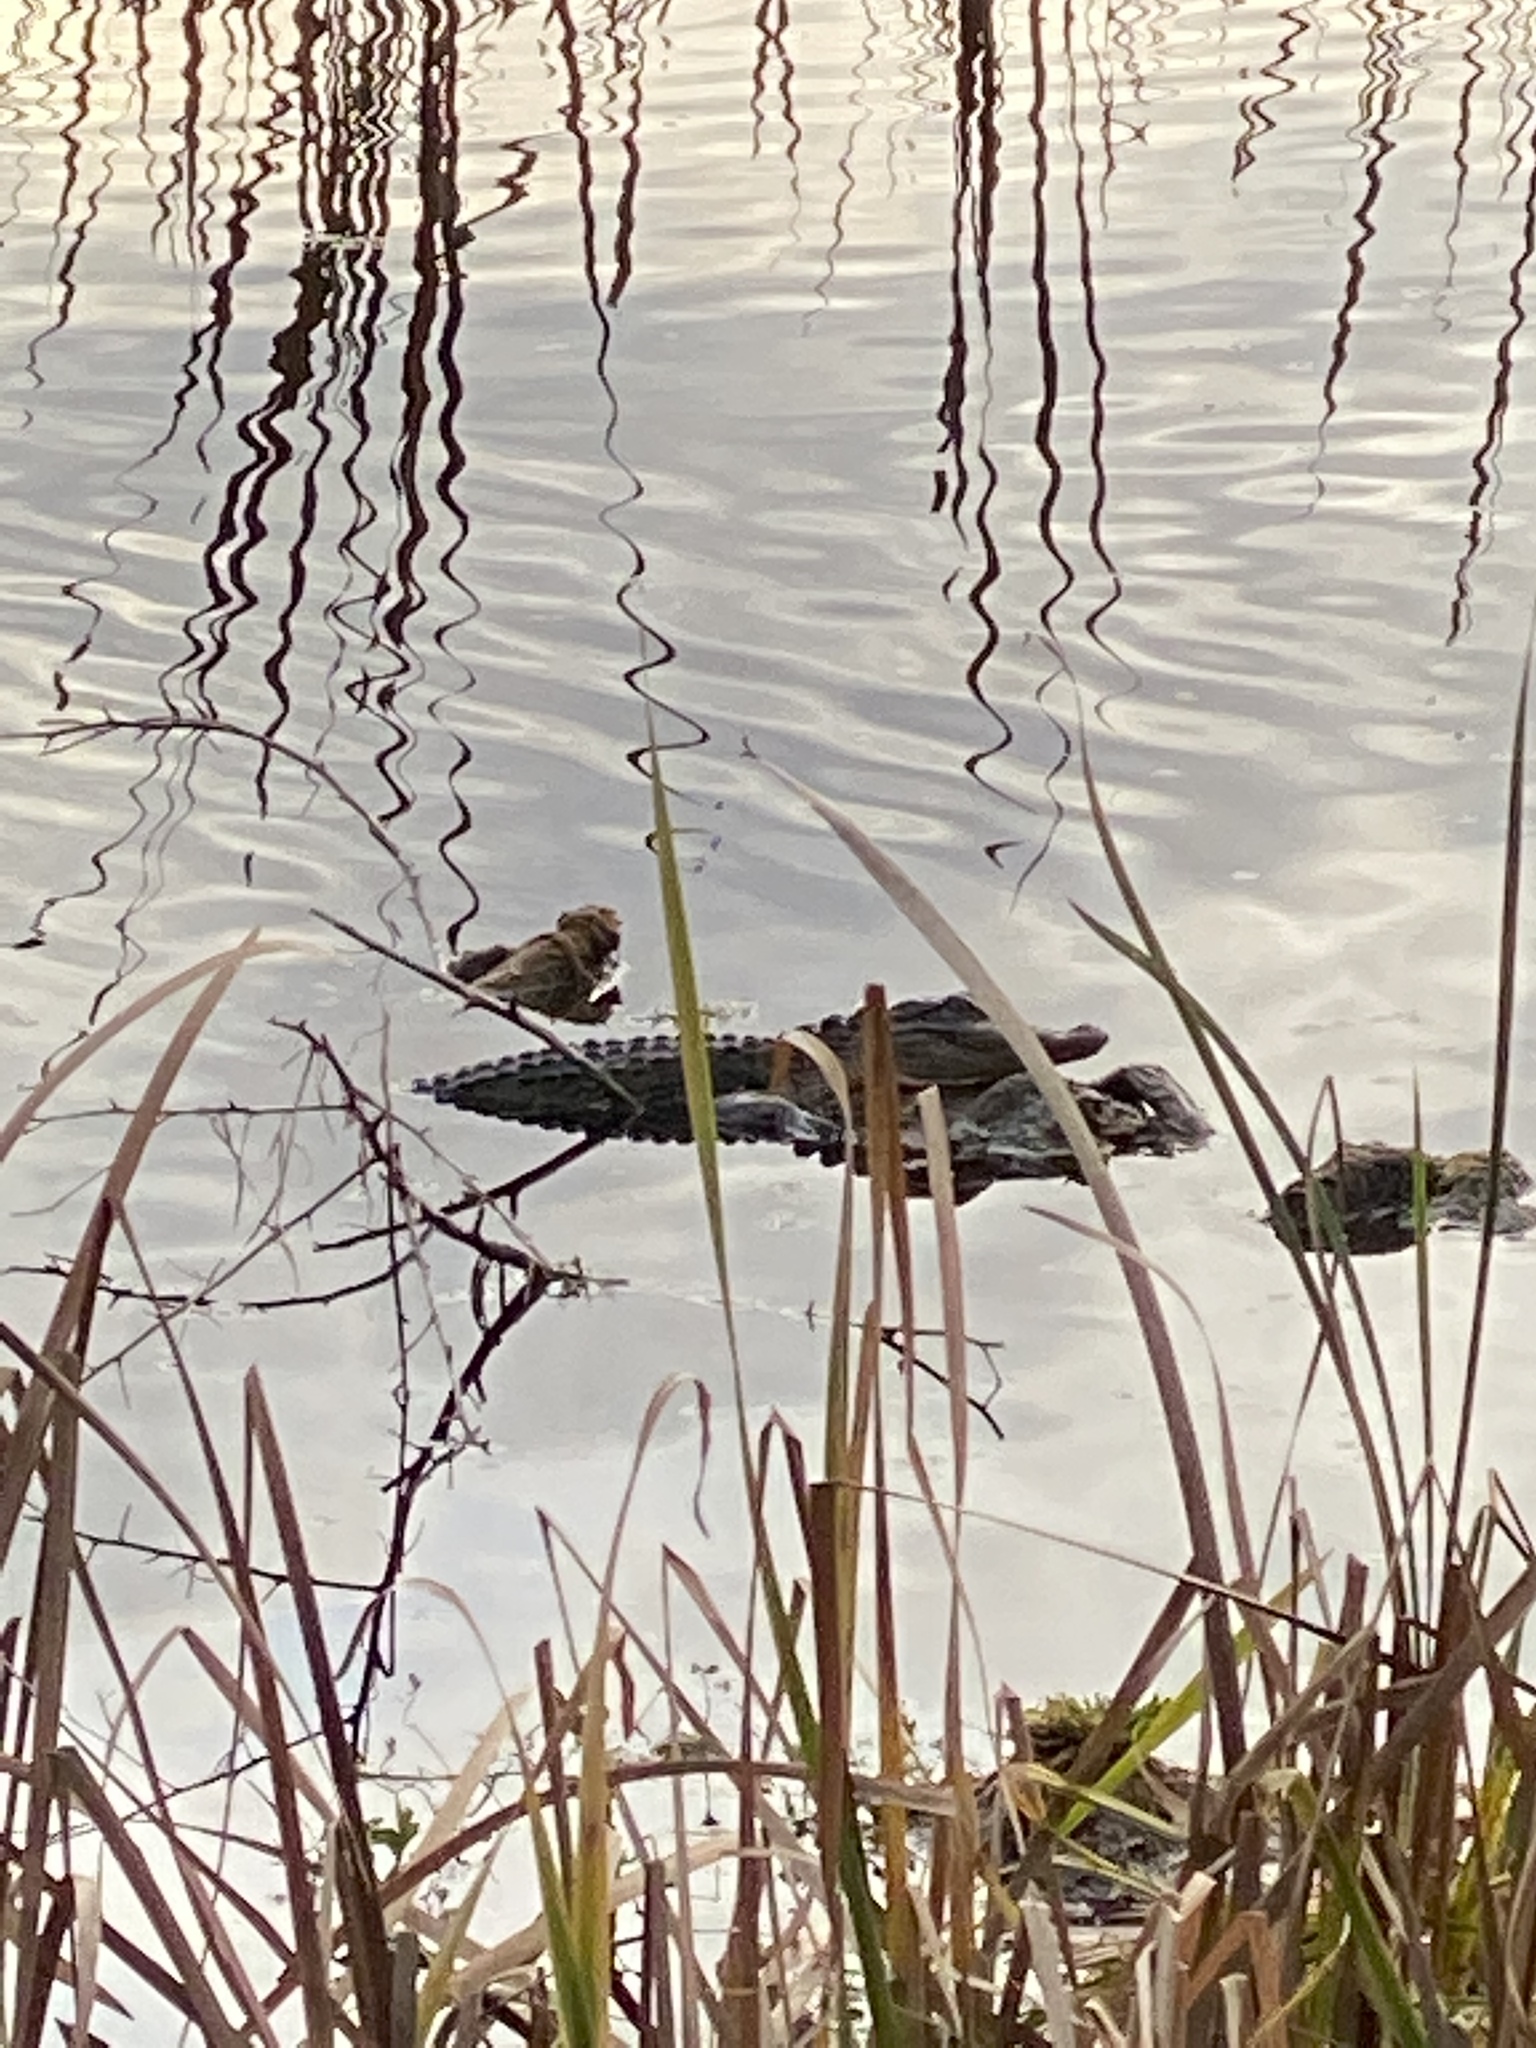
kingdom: Animalia
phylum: Chordata
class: Crocodylia
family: Alligatoridae
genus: Alligator
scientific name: Alligator mississippiensis
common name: American alligator
